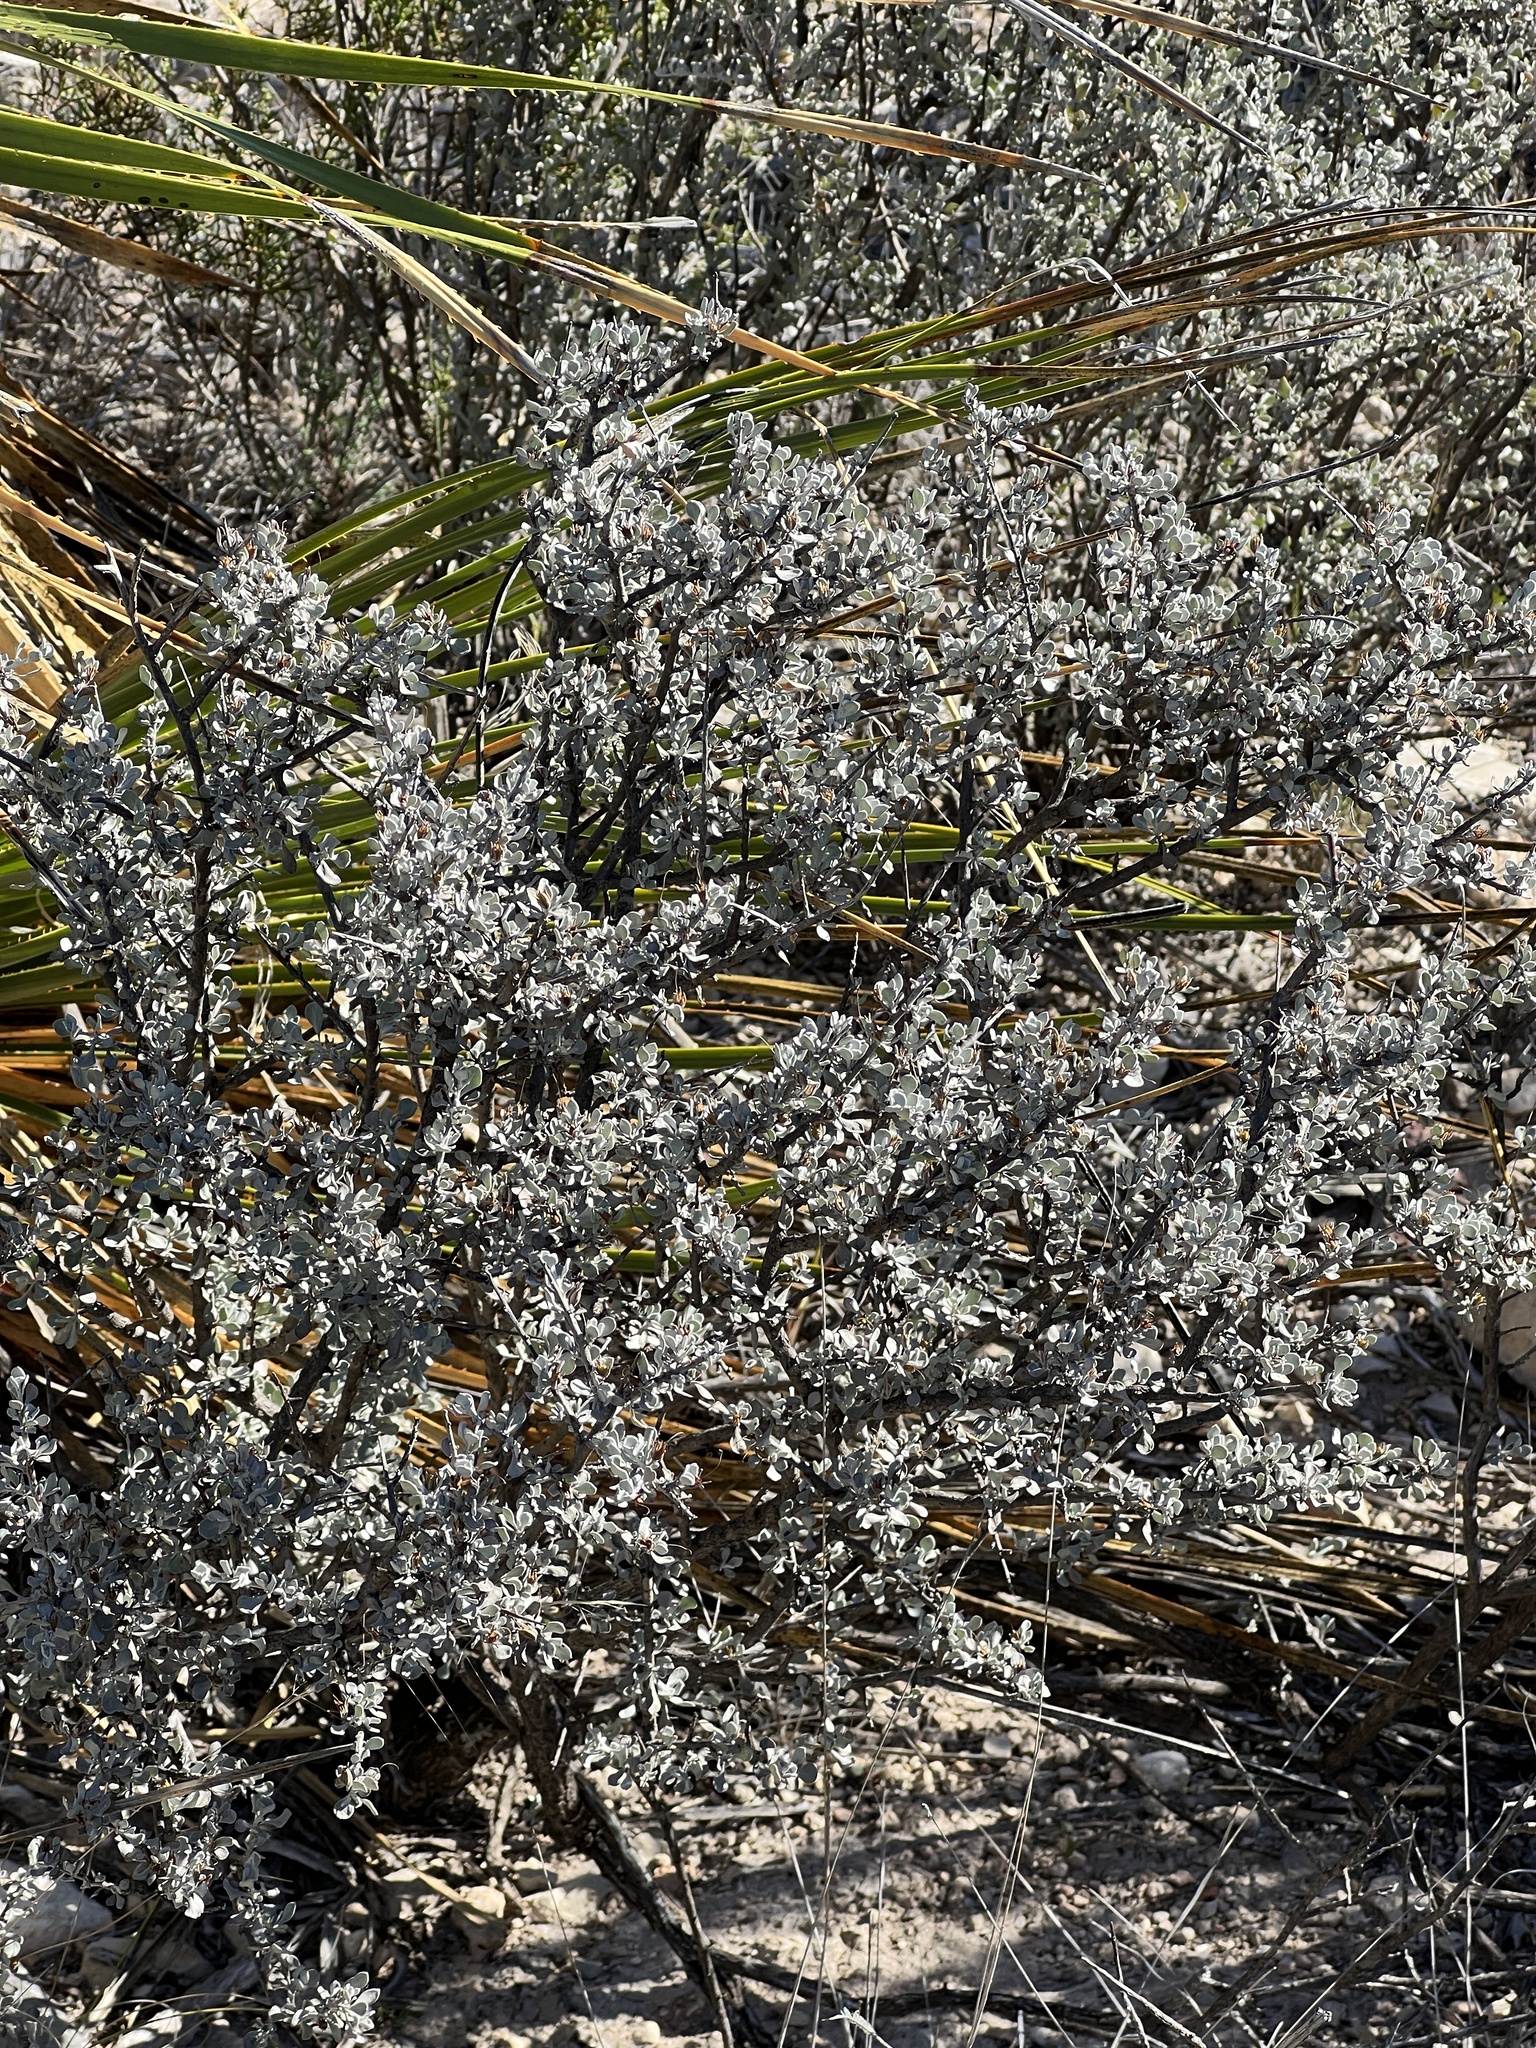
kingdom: Plantae
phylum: Tracheophyta
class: Magnoliopsida
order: Lamiales
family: Scrophulariaceae
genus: Leucophyllum
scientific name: Leucophyllum minus
